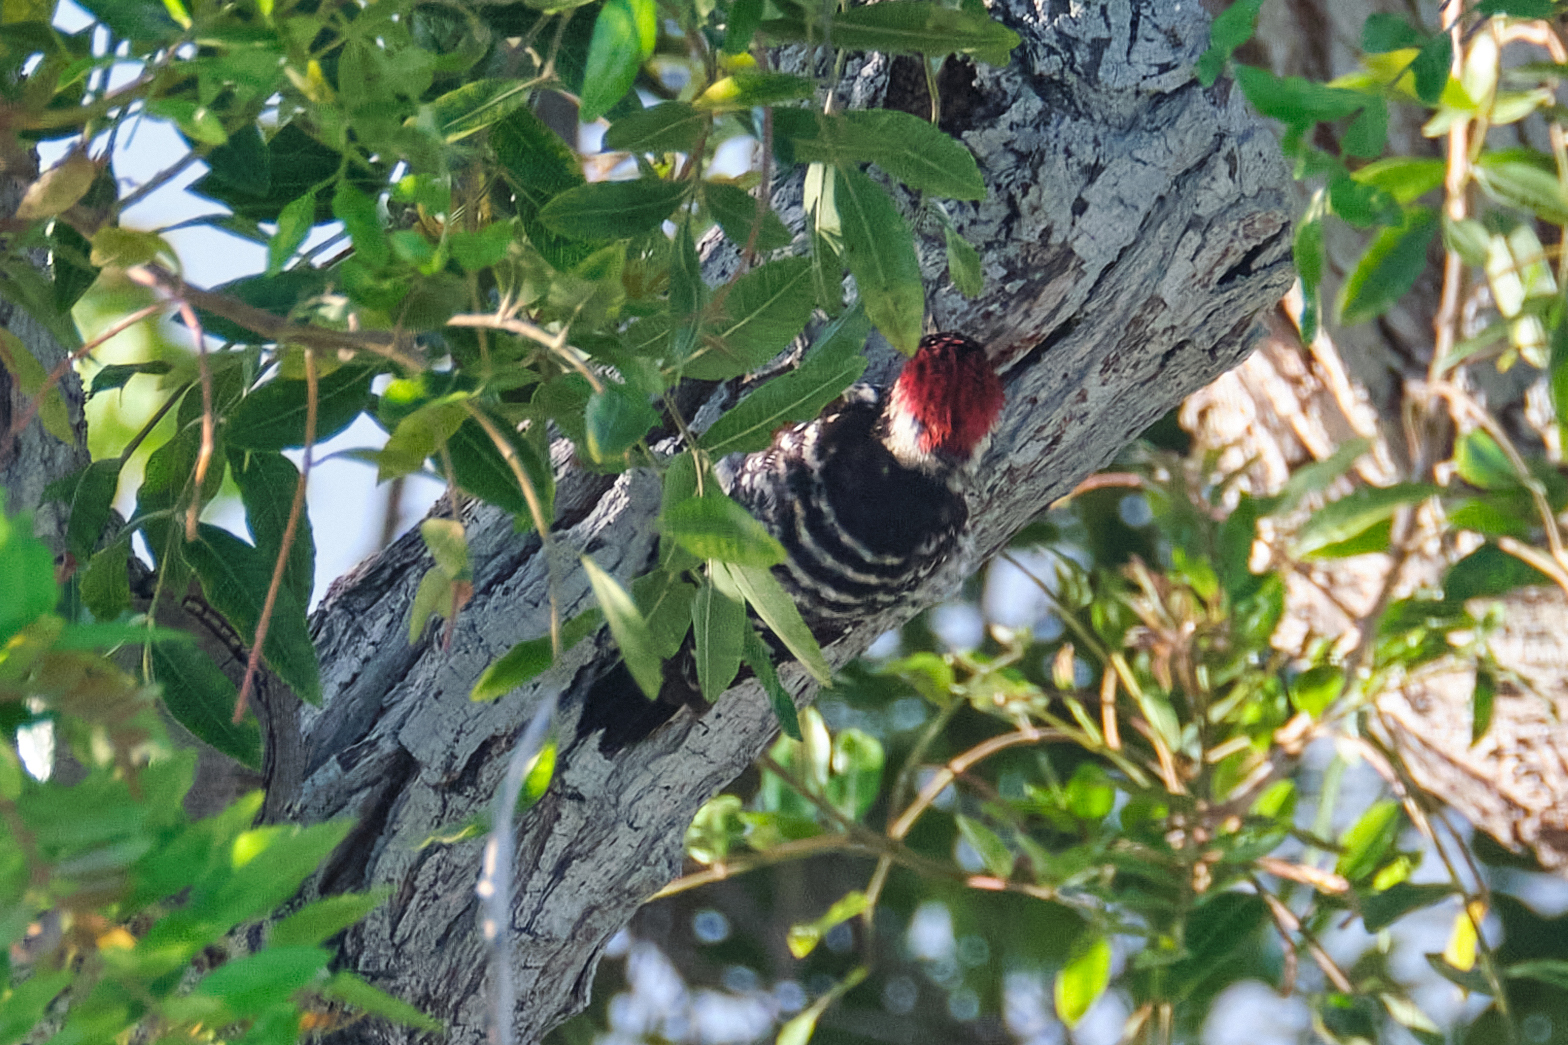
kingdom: Animalia
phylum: Chordata
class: Aves
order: Piciformes
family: Picidae
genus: Dryobates
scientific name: Dryobates nuttallii
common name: Nuttall's woodpecker
